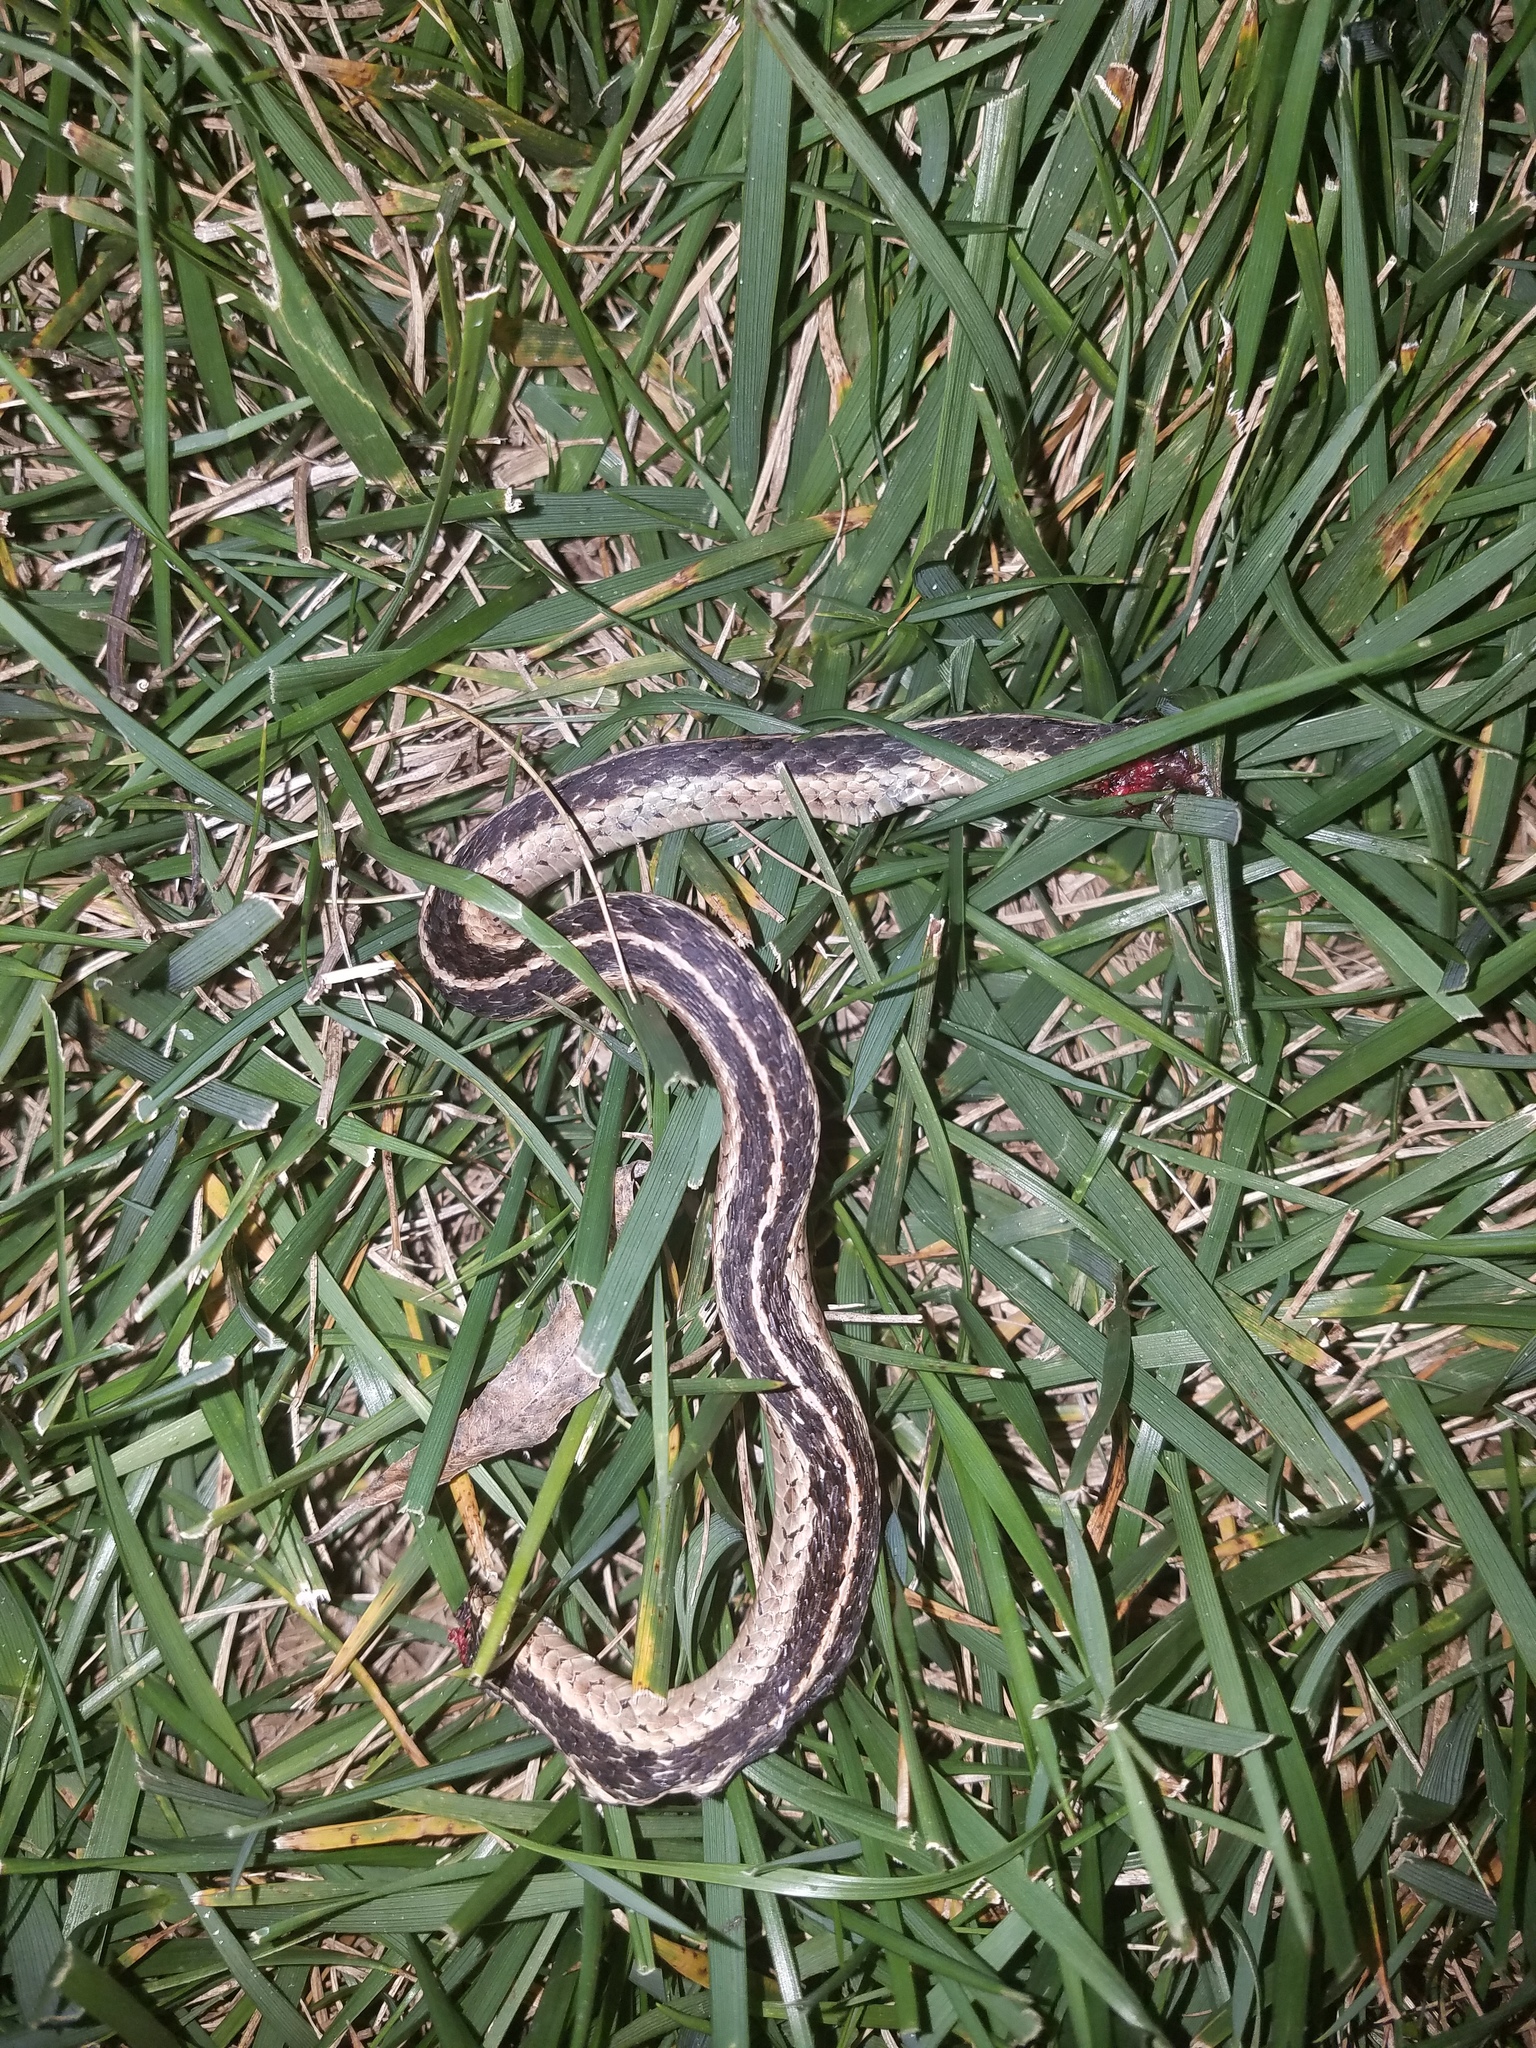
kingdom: Animalia
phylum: Chordata
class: Squamata
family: Colubridae
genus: Thamnophis
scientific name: Thamnophis sirtalis
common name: Common garter snake
